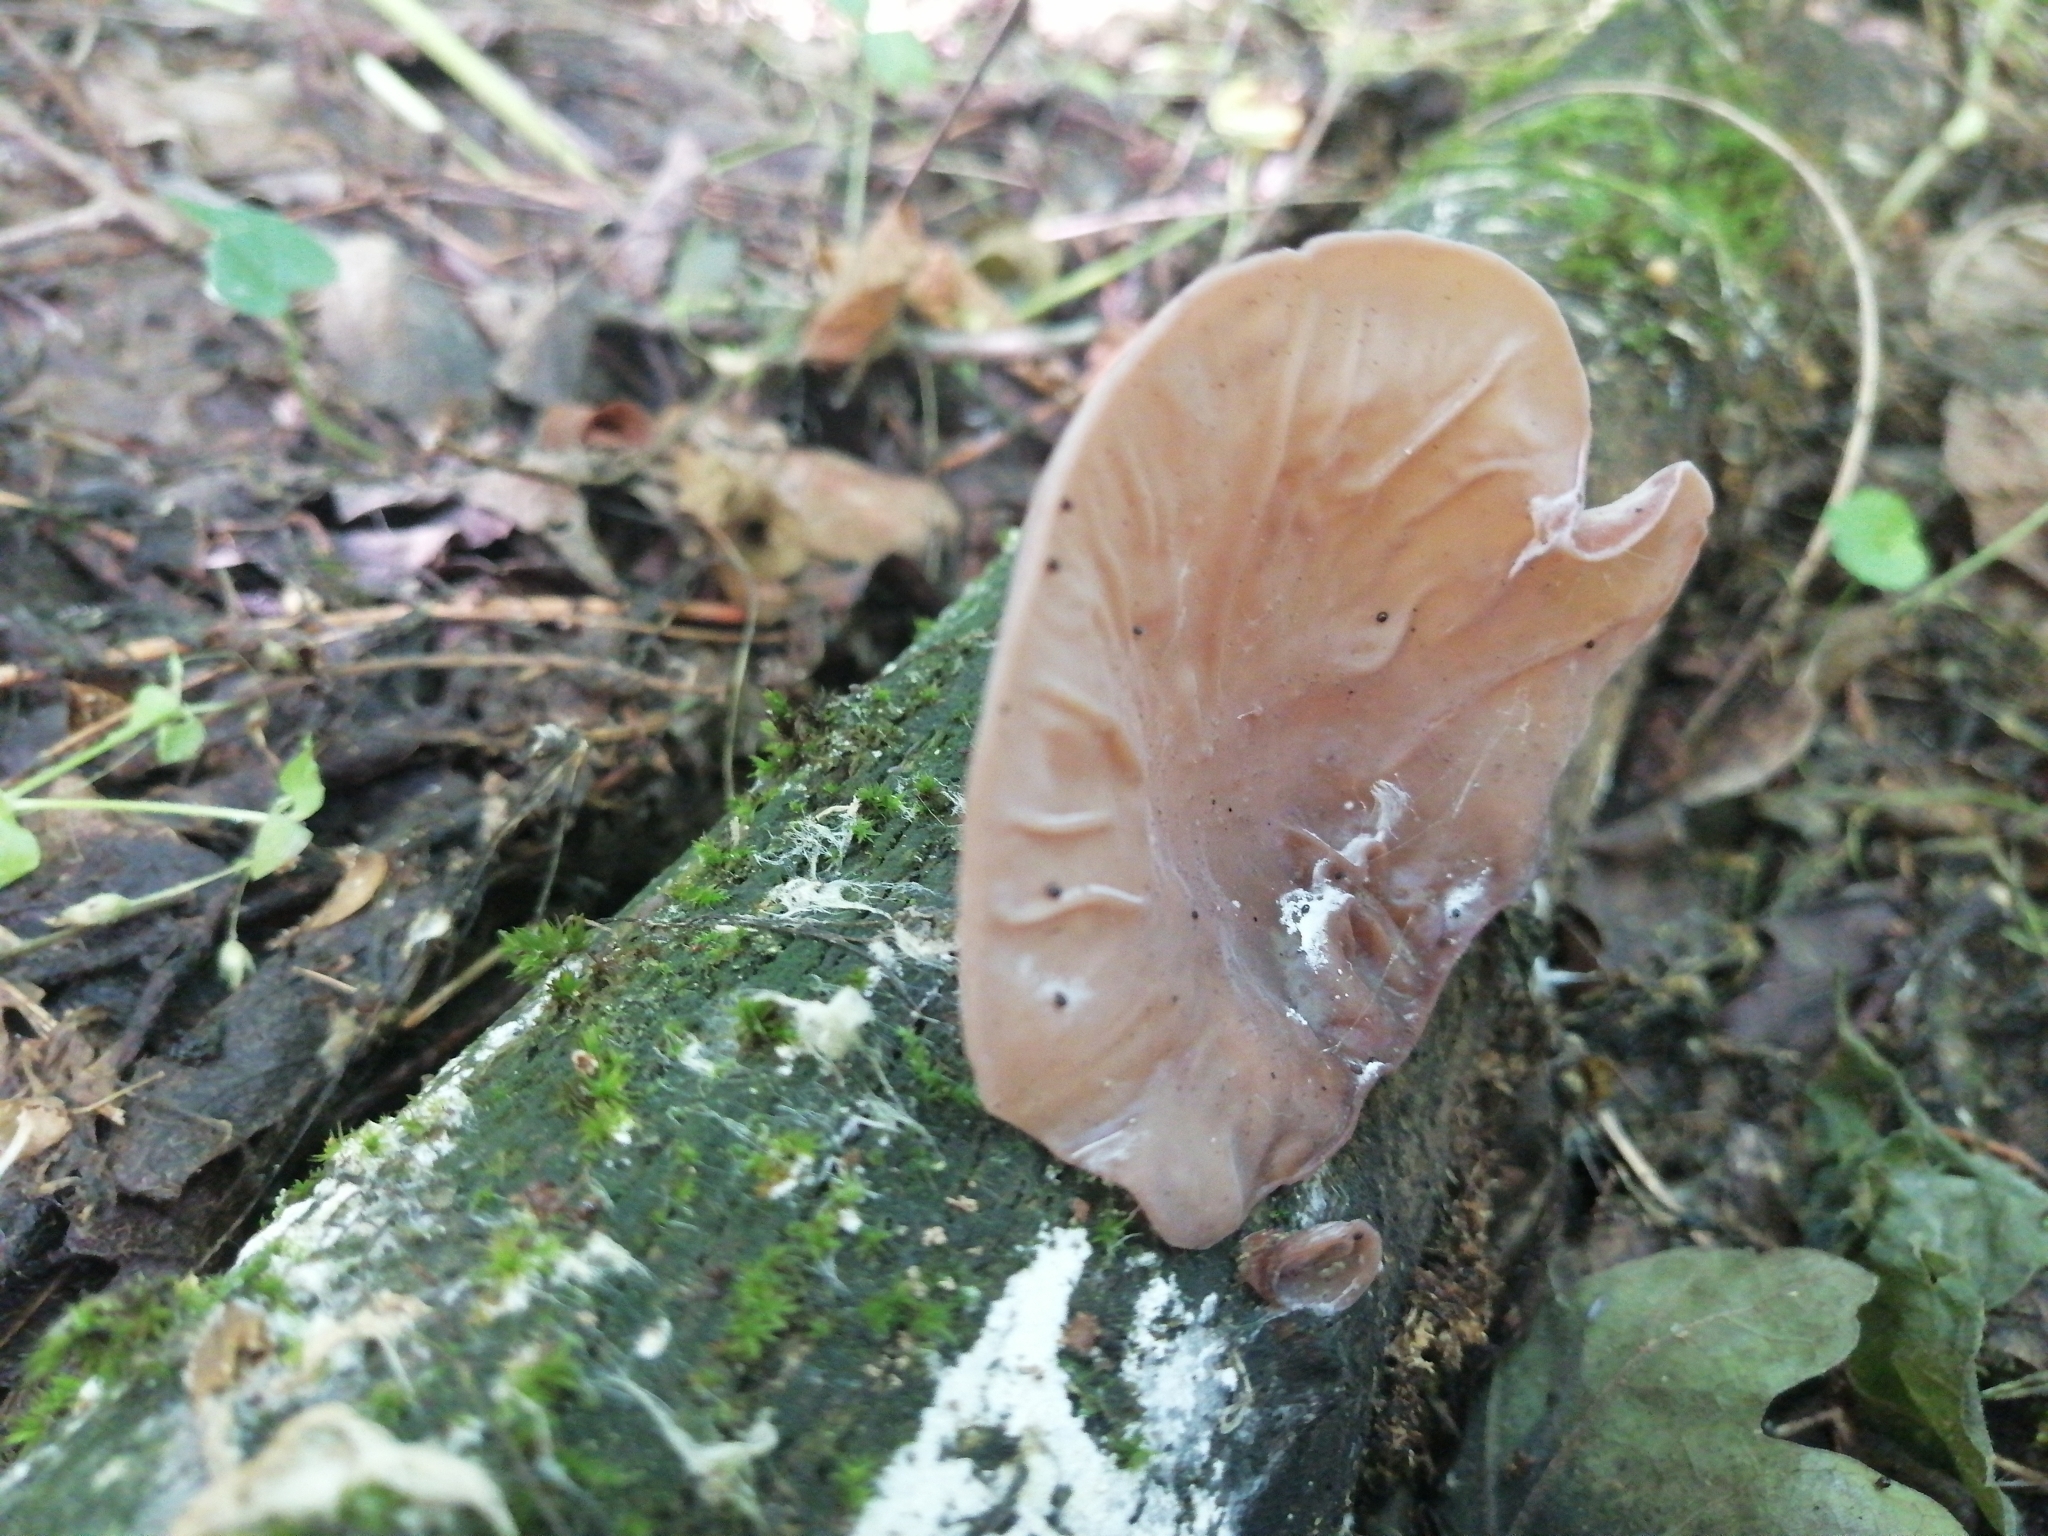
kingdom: Fungi
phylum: Basidiomycota
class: Agaricomycetes
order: Auriculariales
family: Auriculariaceae
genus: Auricularia
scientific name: Auricularia auricula-judae
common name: Jelly ear
